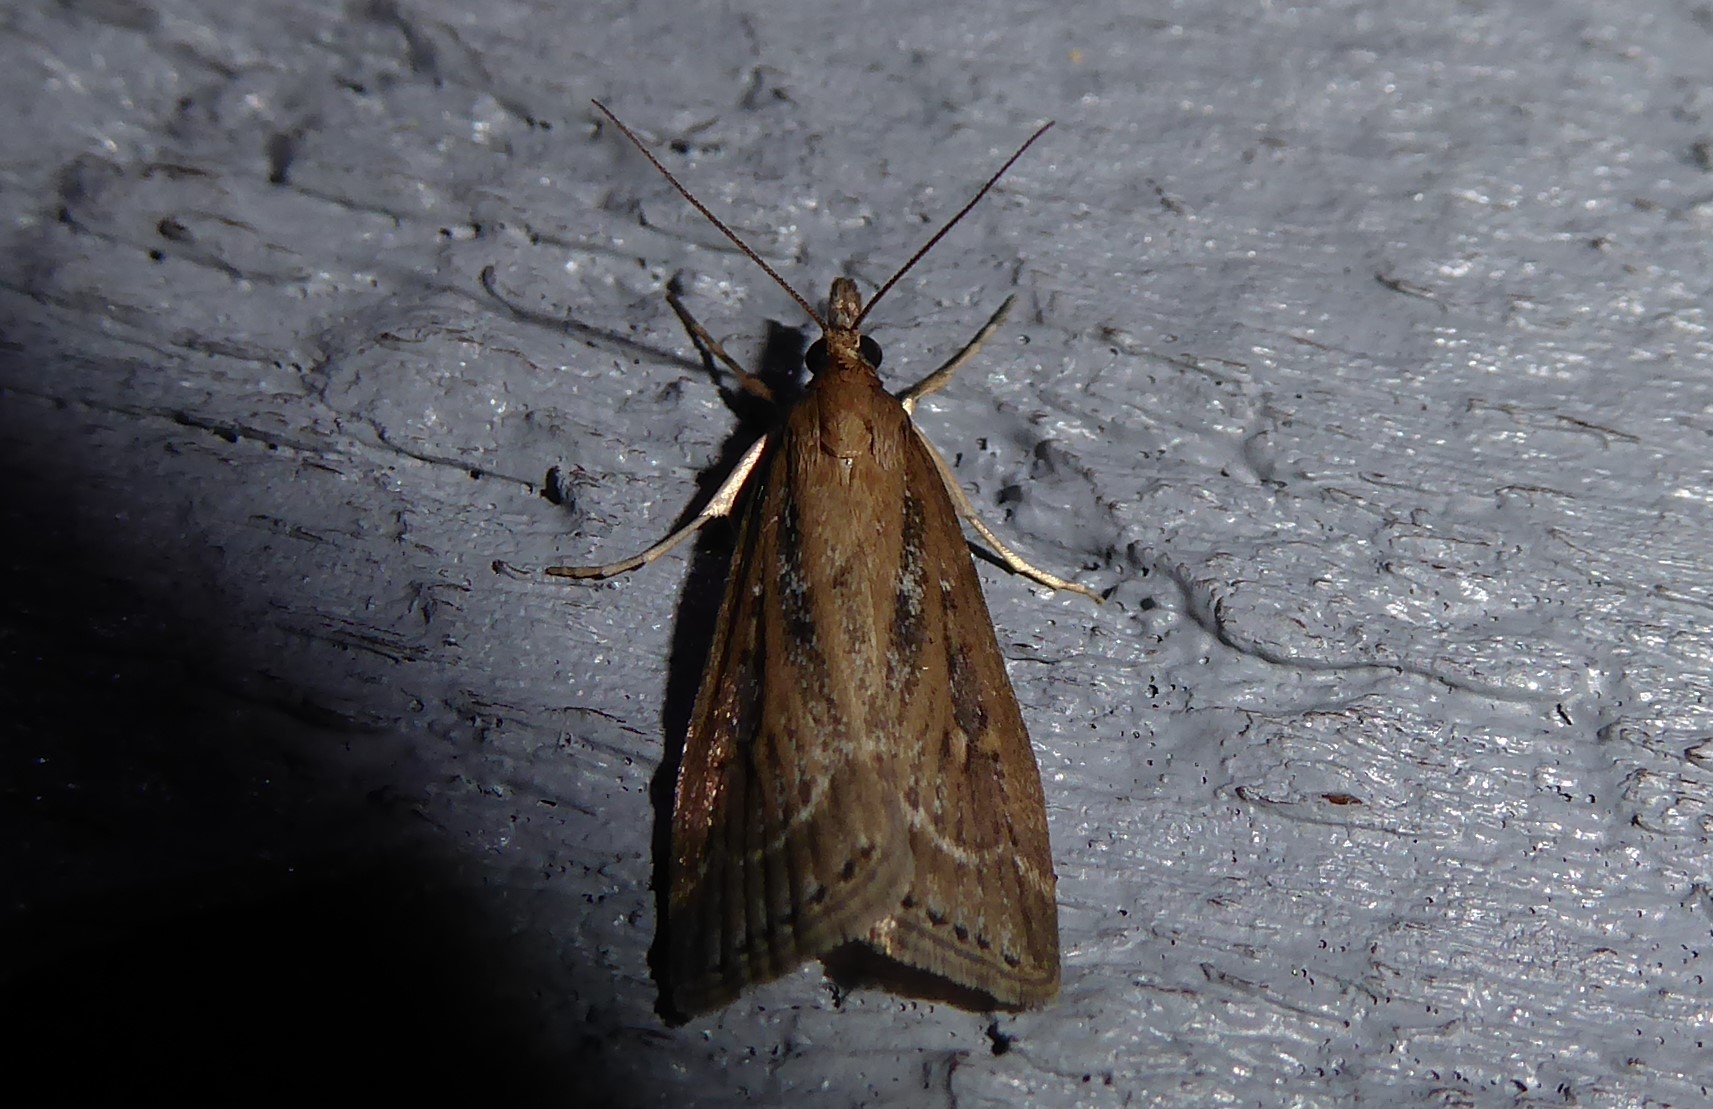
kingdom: Animalia
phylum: Arthropoda
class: Insecta
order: Lepidoptera
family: Crambidae
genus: Eudonia
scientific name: Eudonia octophora
